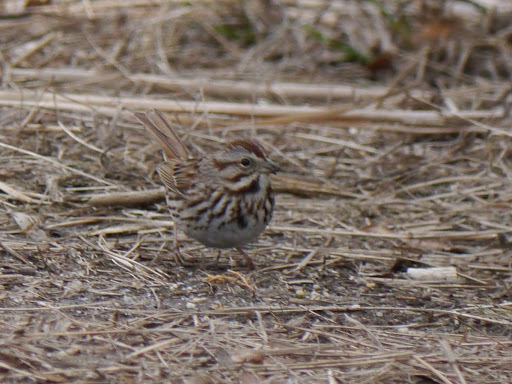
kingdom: Animalia
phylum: Chordata
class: Aves
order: Passeriformes
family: Passerellidae
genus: Melospiza
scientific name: Melospiza melodia
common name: Song sparrow
